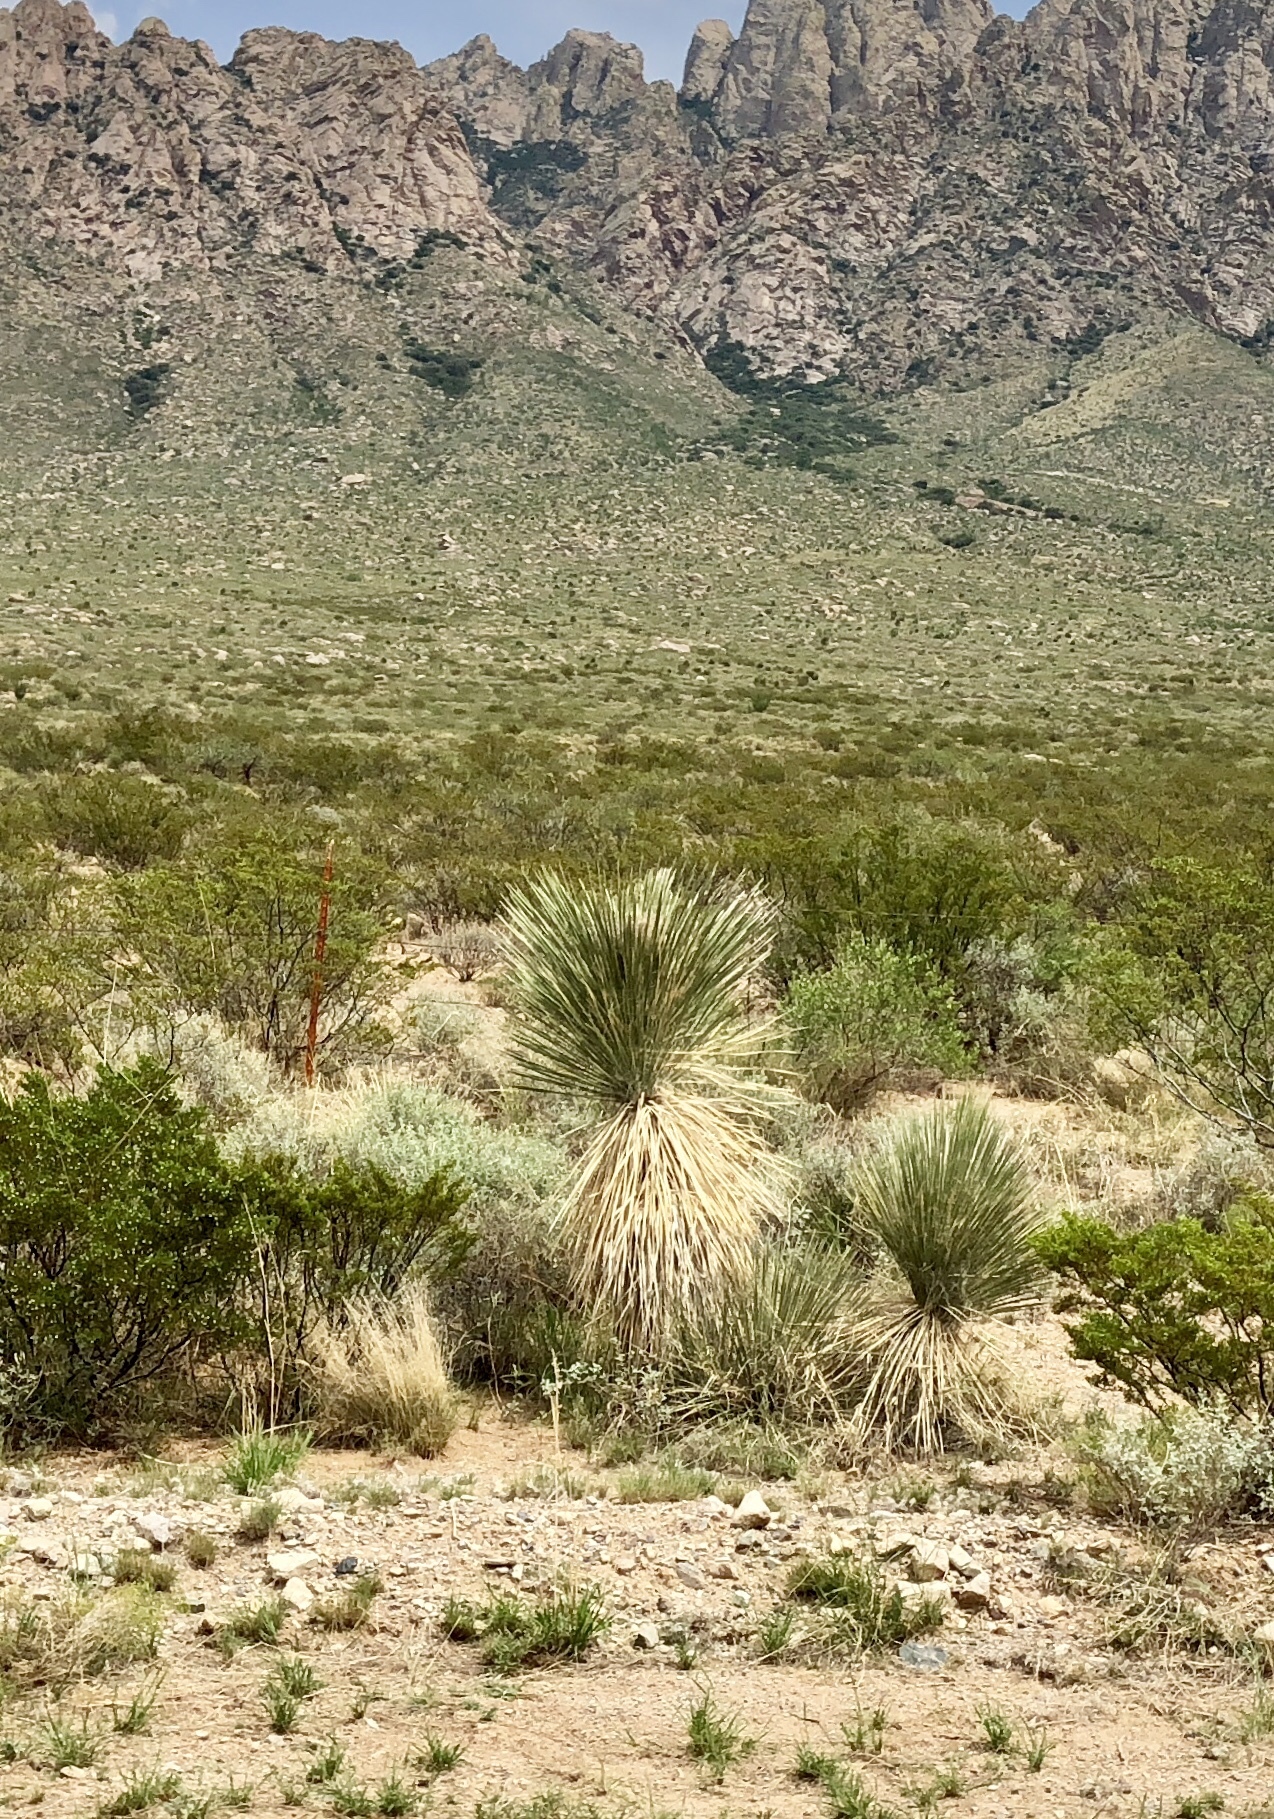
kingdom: Plantae
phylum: Tracheophyta
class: Liliopsida
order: Asparagales
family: Asparagaceae
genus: Yucca
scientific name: Yucca elata
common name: Palmella
